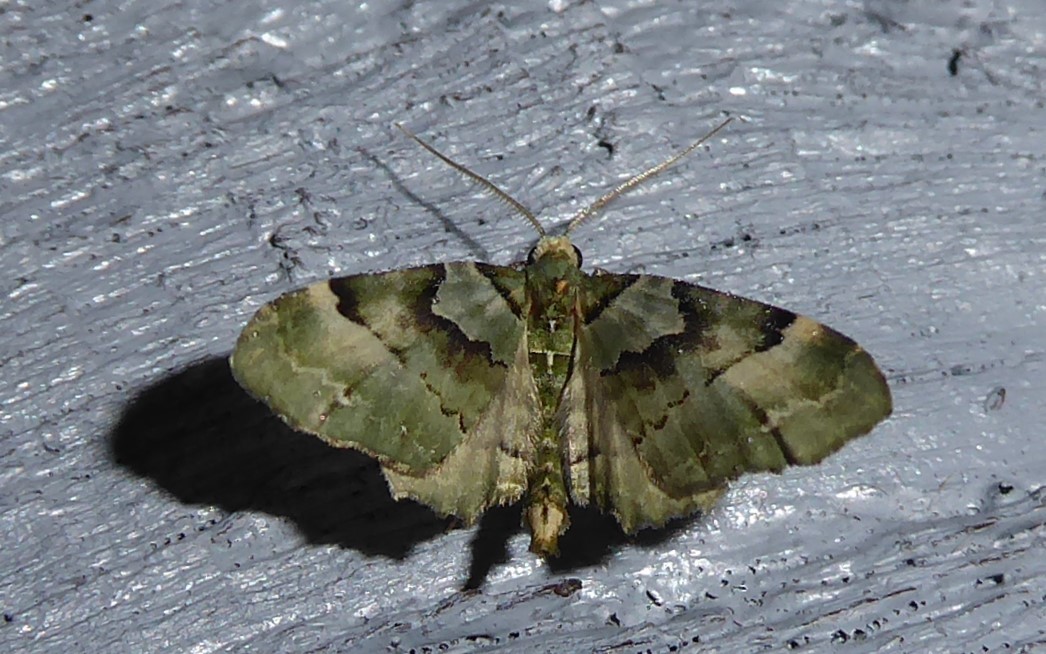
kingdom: Animalia
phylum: Arthropoda
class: Insecta
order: Lepidoptera
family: Geometridae
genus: Elvia
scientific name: Elvia glaucata
